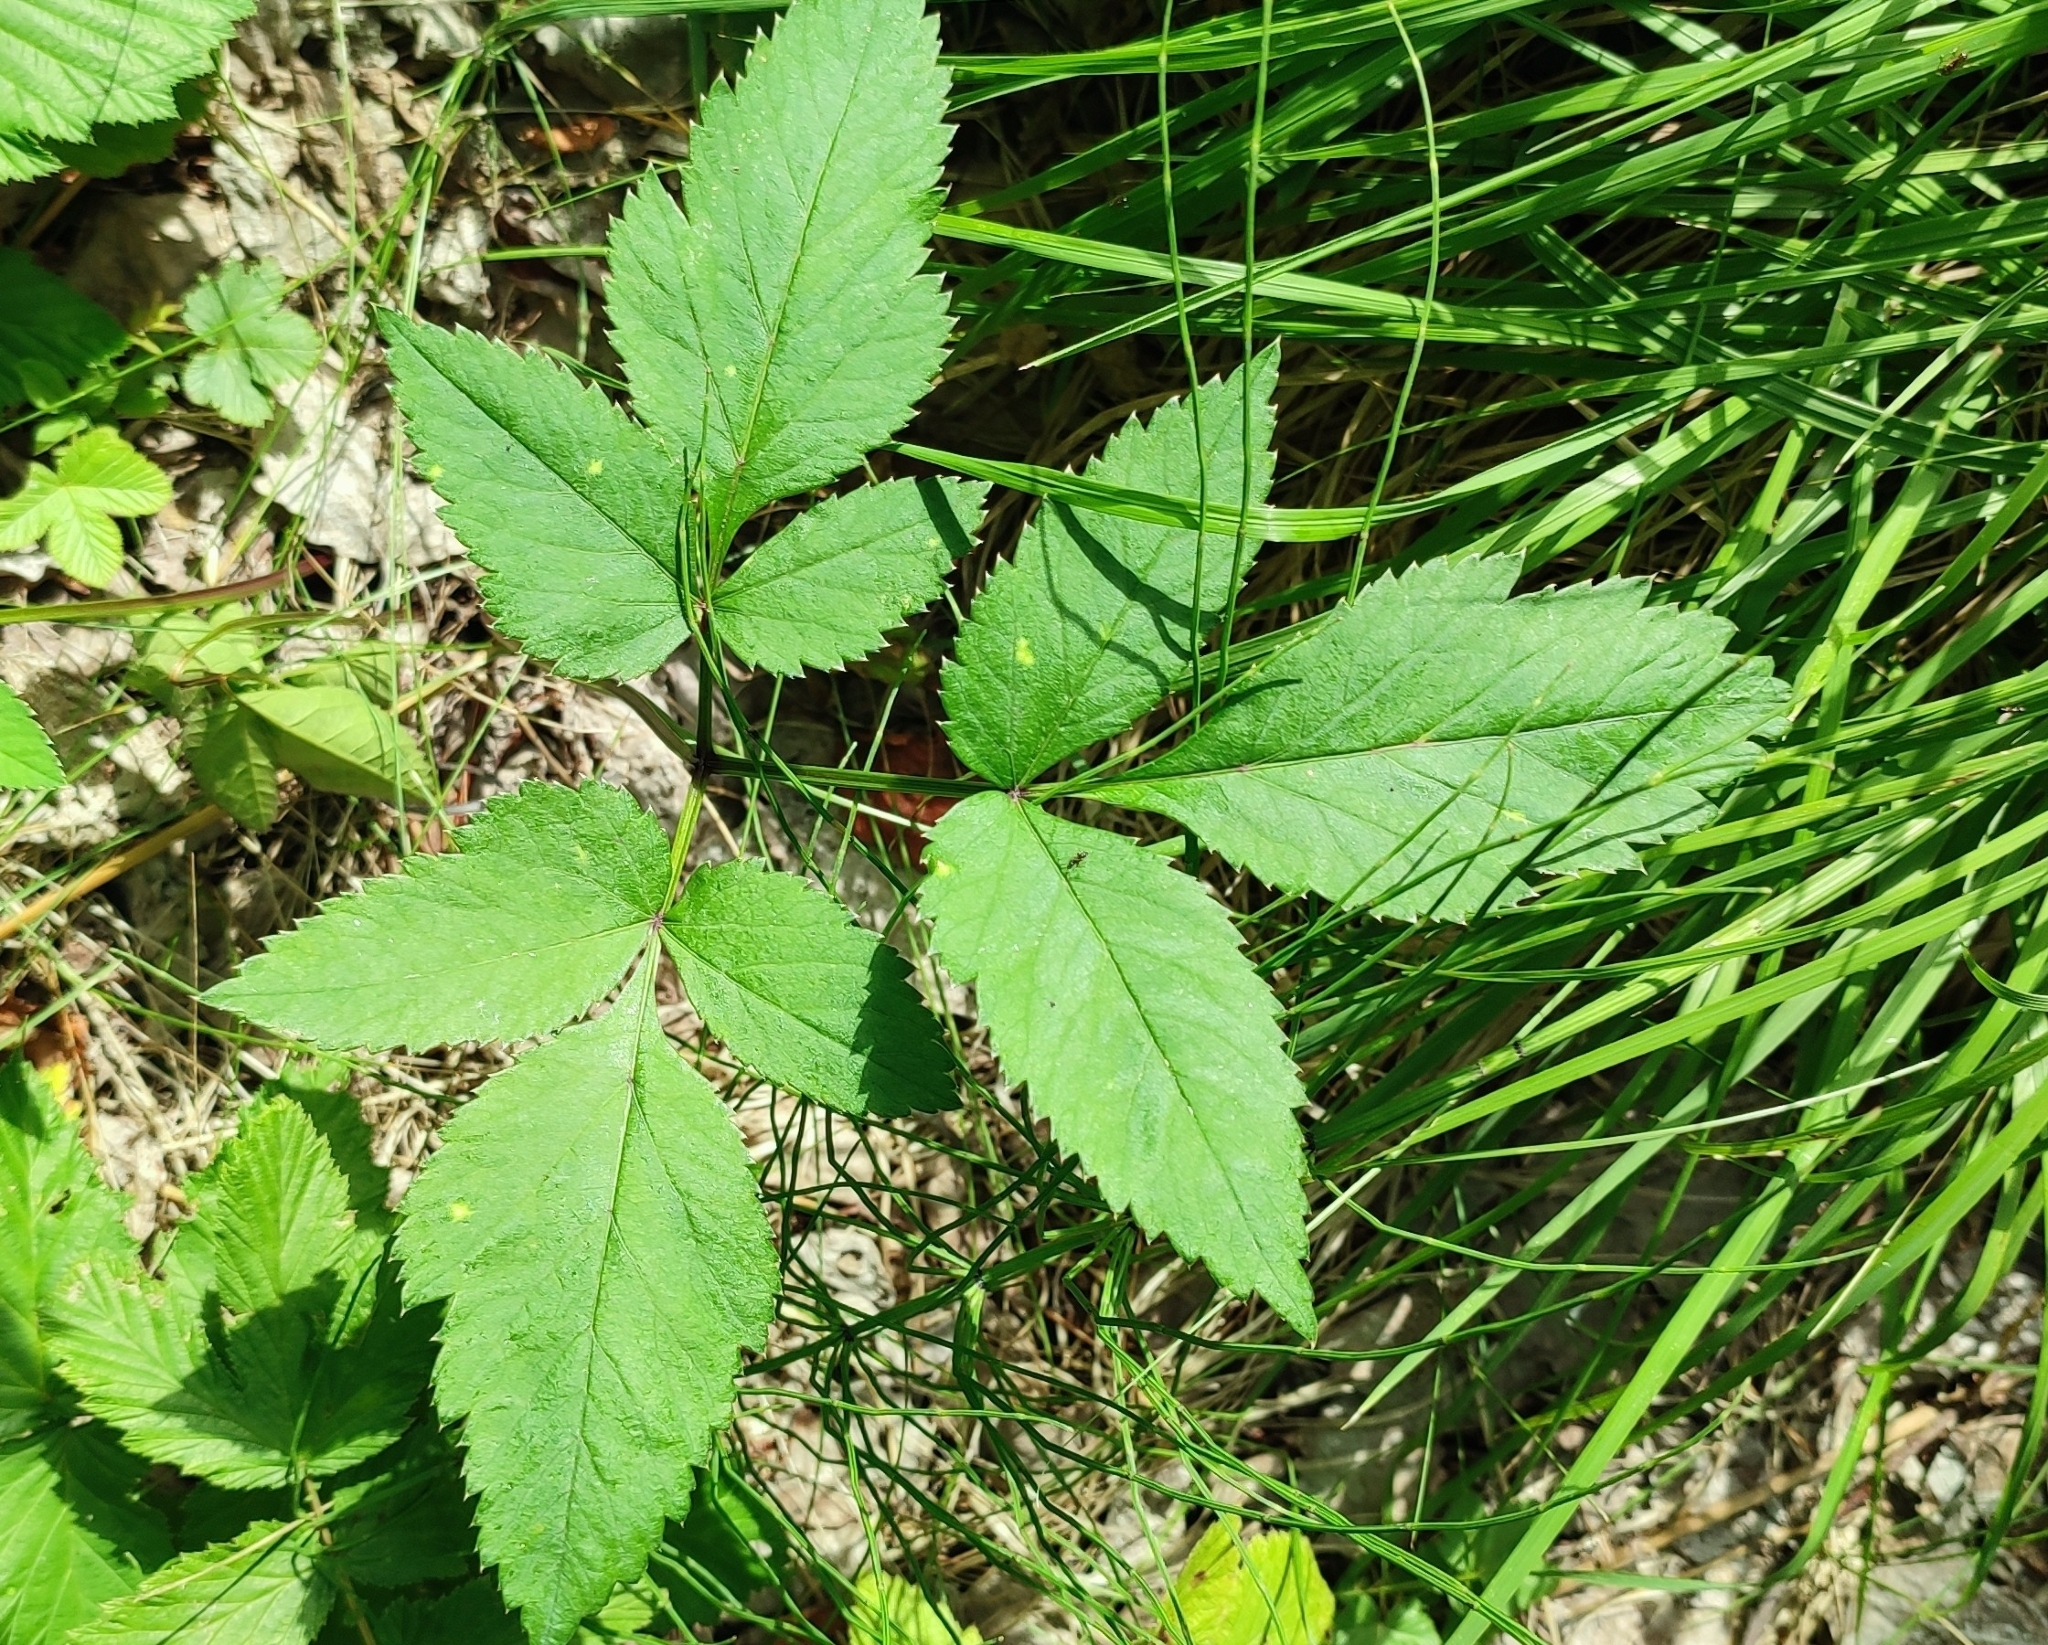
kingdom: Plantae
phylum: Tracheophyta
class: Magnoliopsida
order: Apiales
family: Apiaceae
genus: Angelica
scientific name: Angelica sylvestris
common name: Wild angelica
